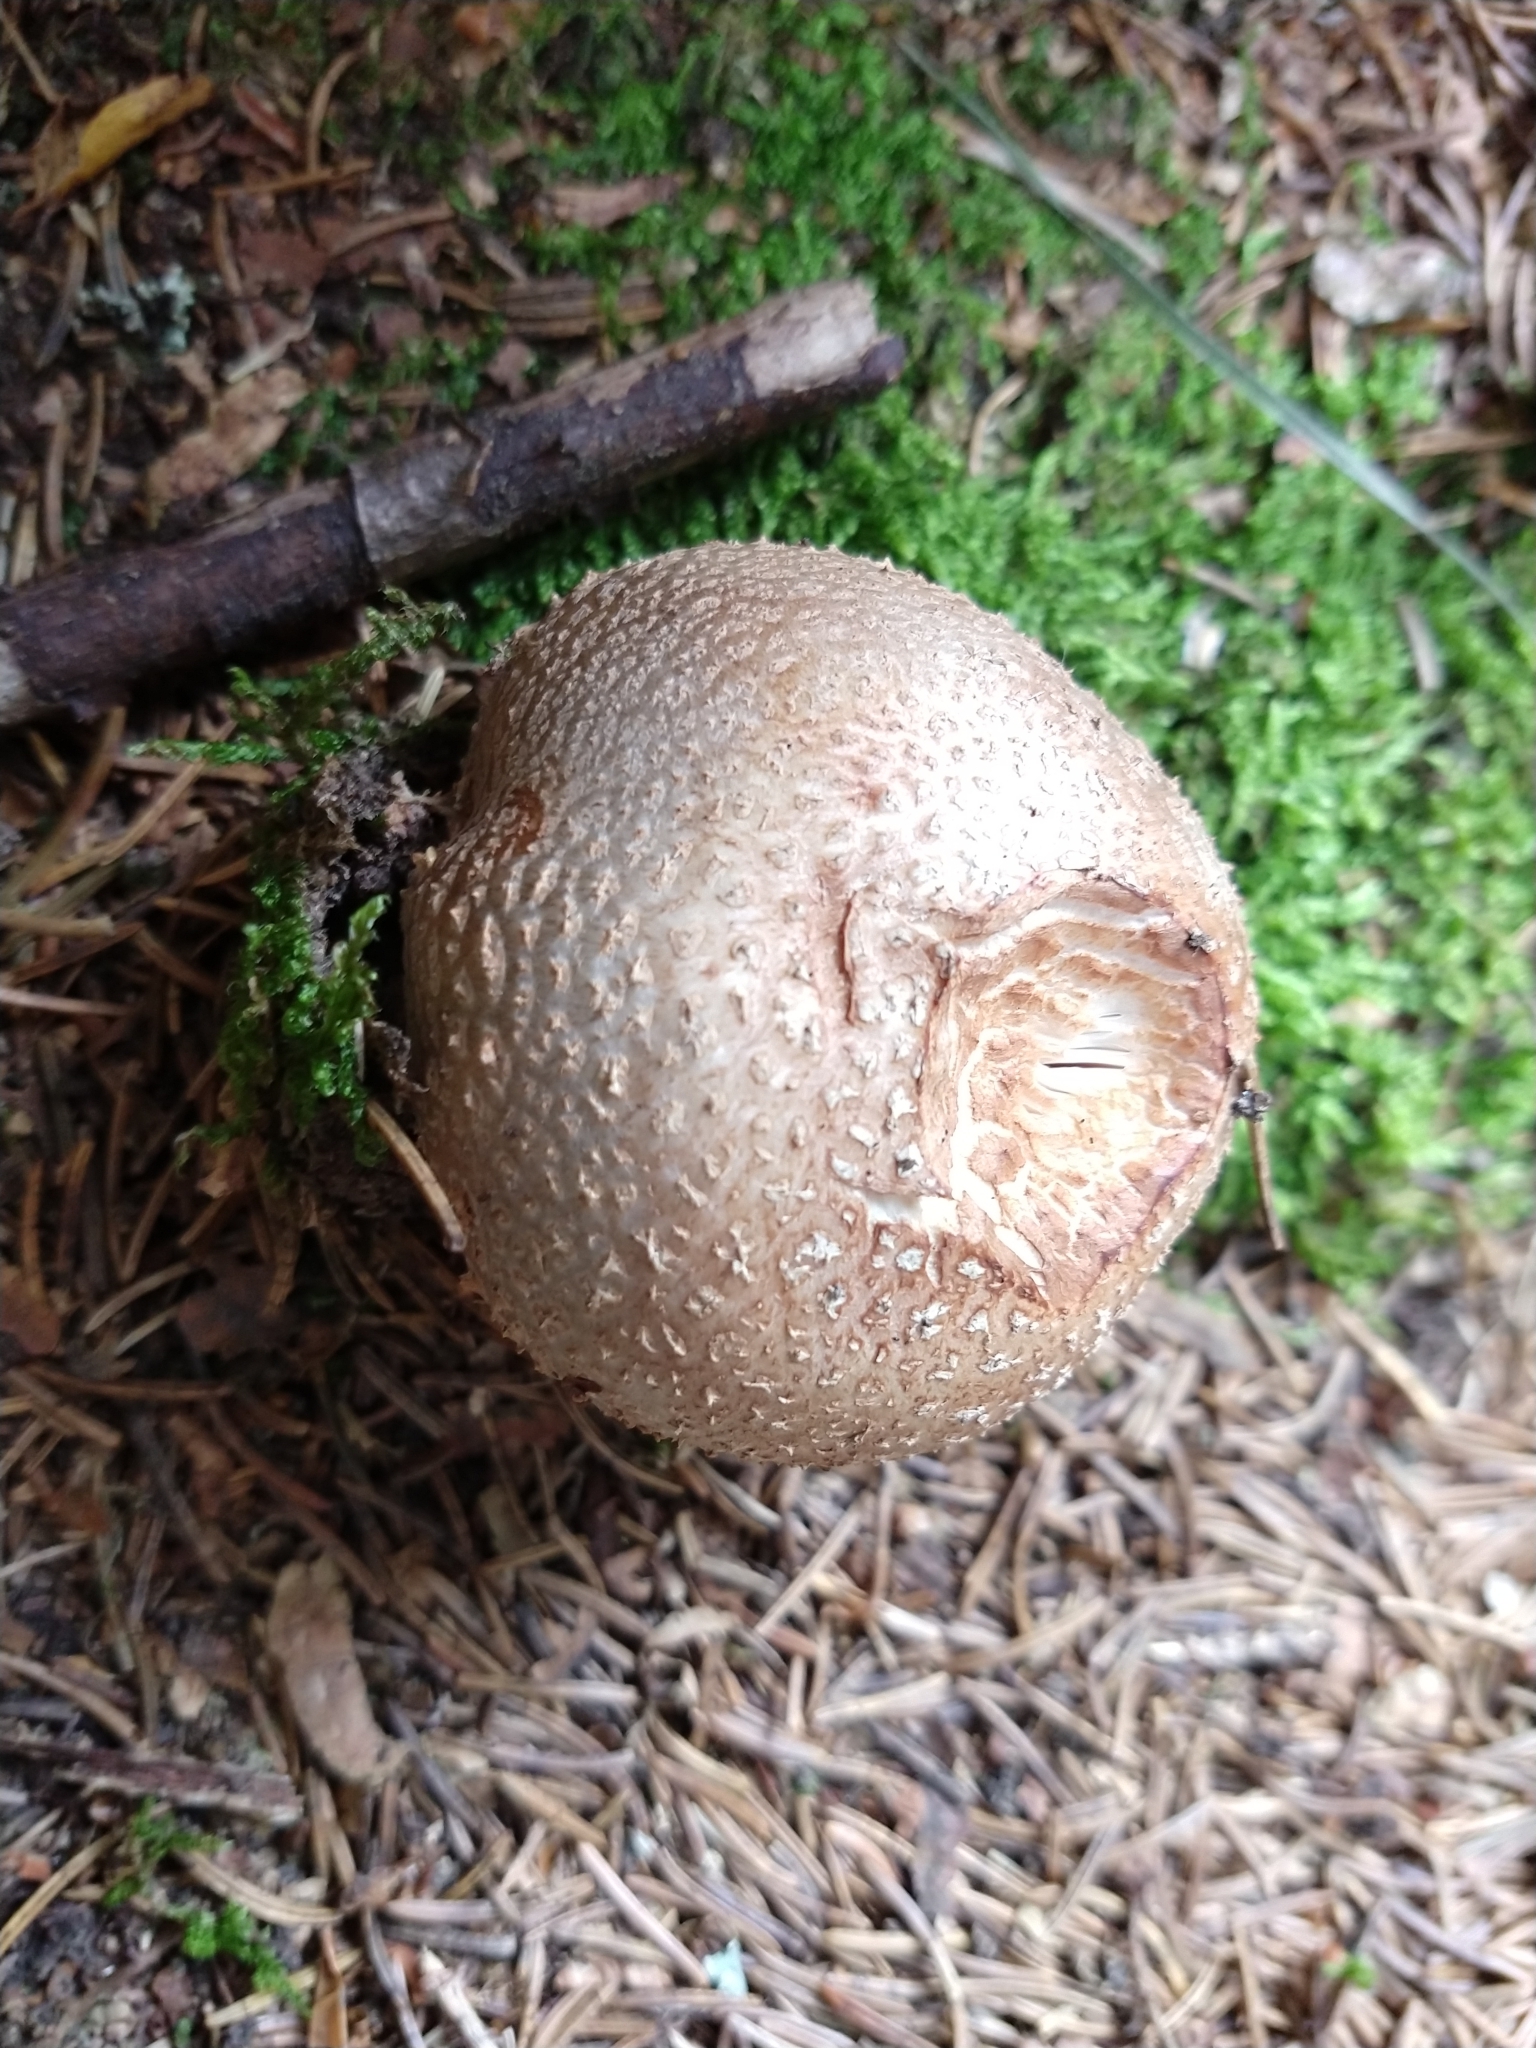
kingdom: Fungi
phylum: Basidiomycota
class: Agaricomycetes
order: Agaricales
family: Amanitaceae
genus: Amanita
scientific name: Amanita rubescens
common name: Blusher
